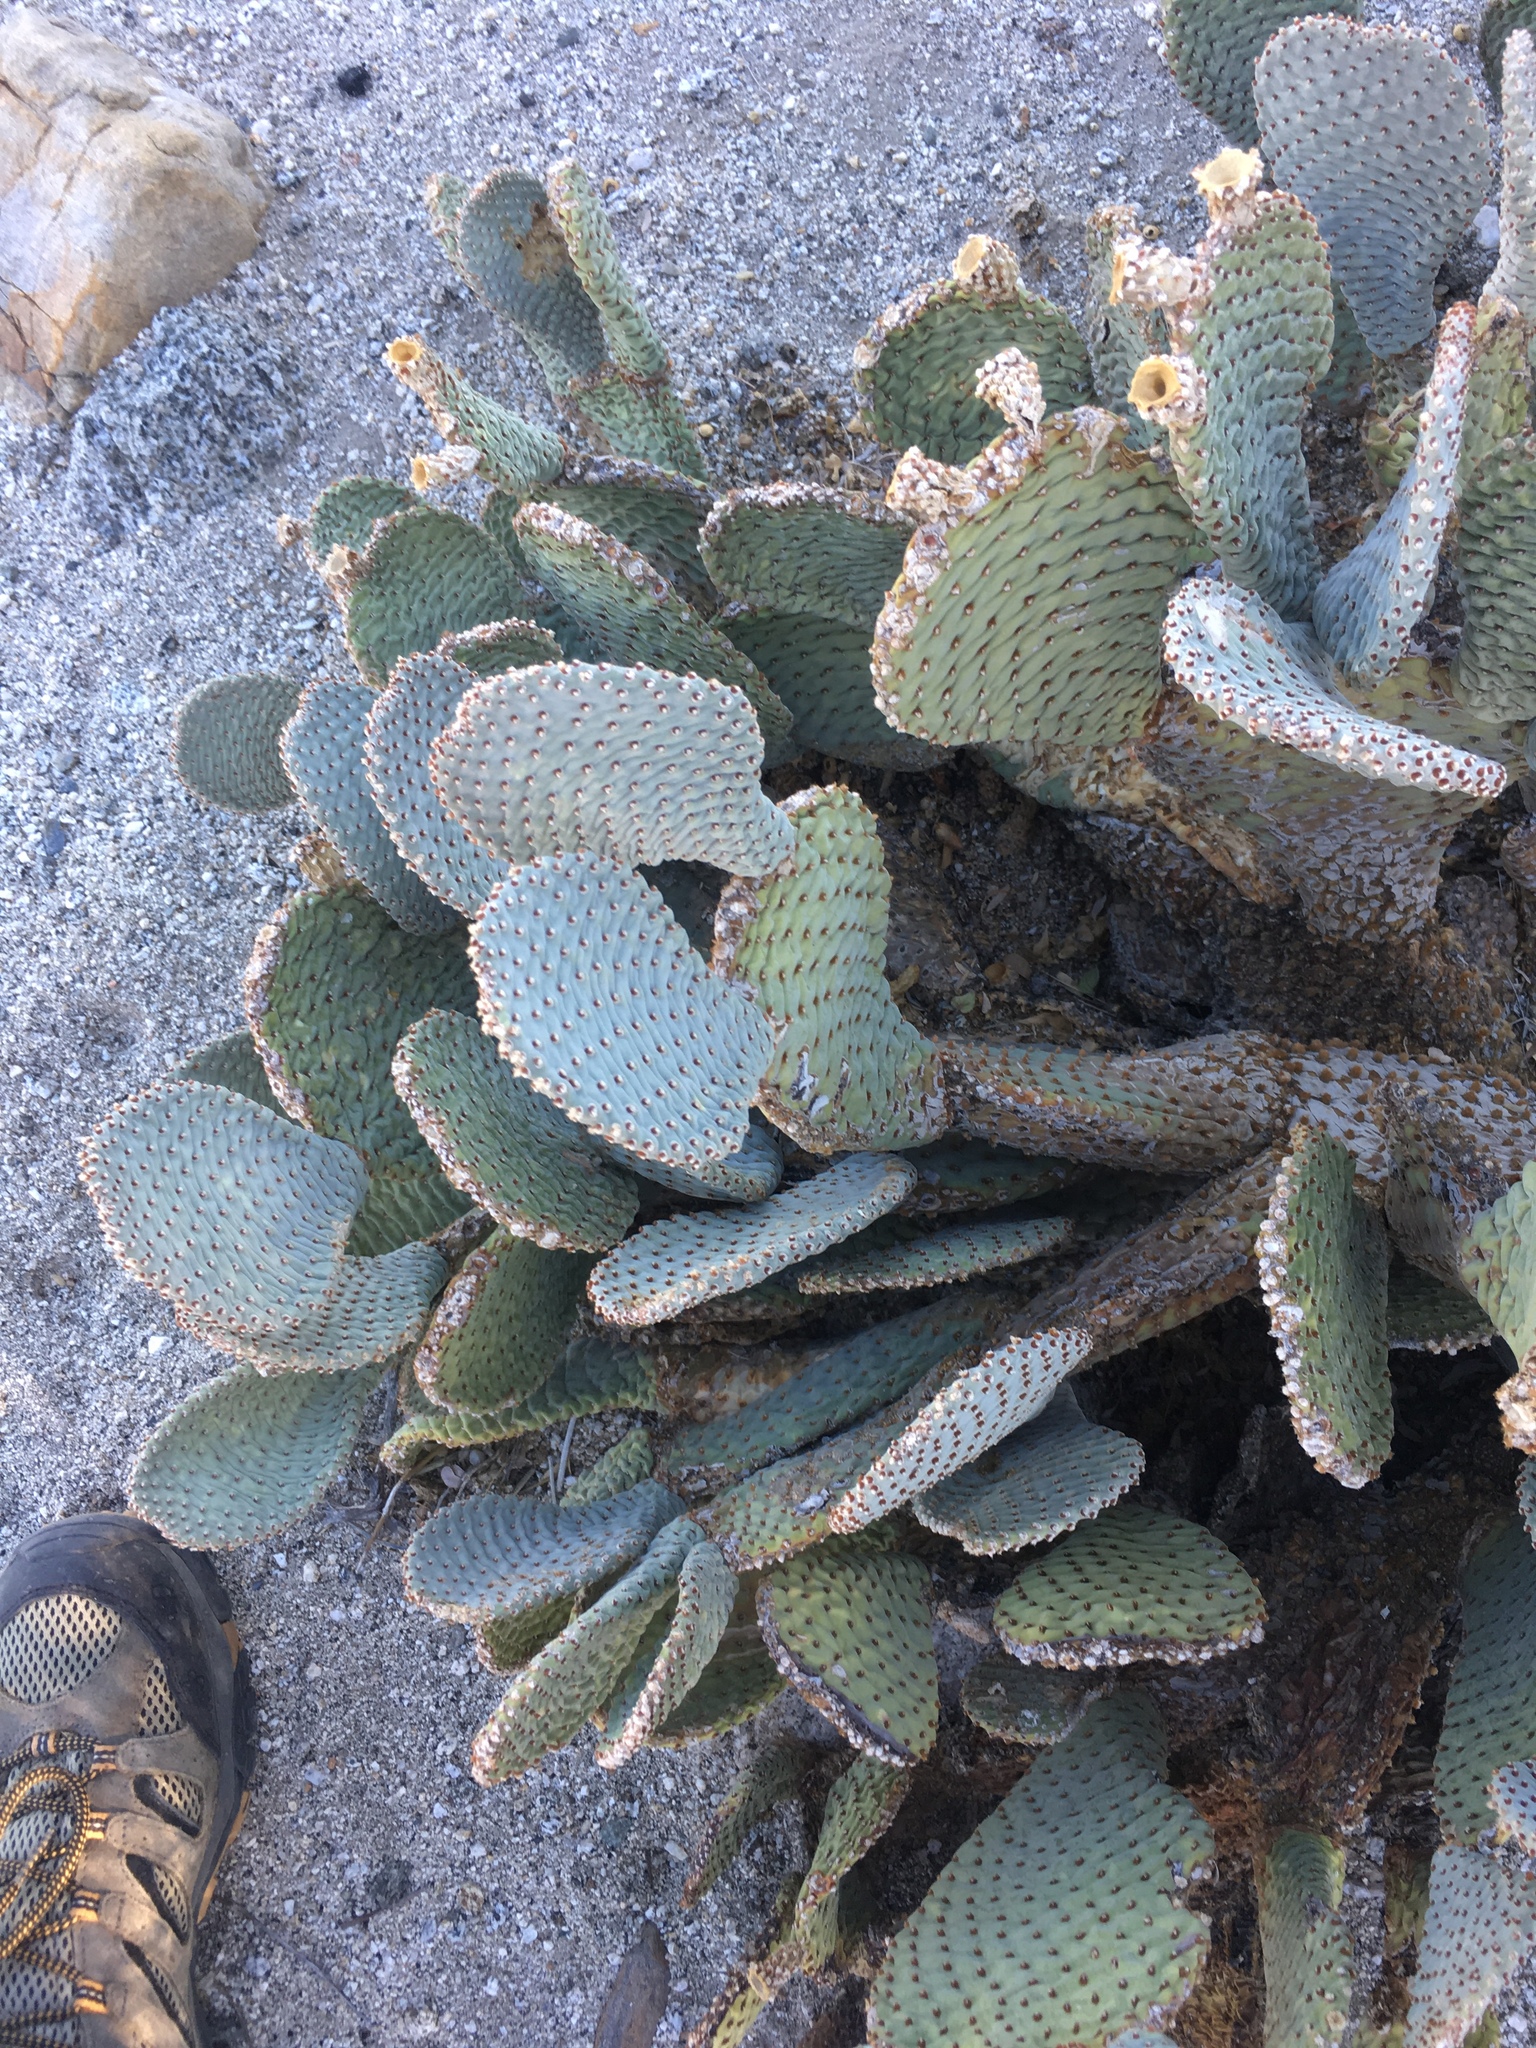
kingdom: Plantae
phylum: Tracheophyta
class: Magnoliopsida
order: Caryophyllales
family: Cactaceae
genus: Opuntia
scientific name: Opuntia basilaris
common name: Beavertail prickly-pear
